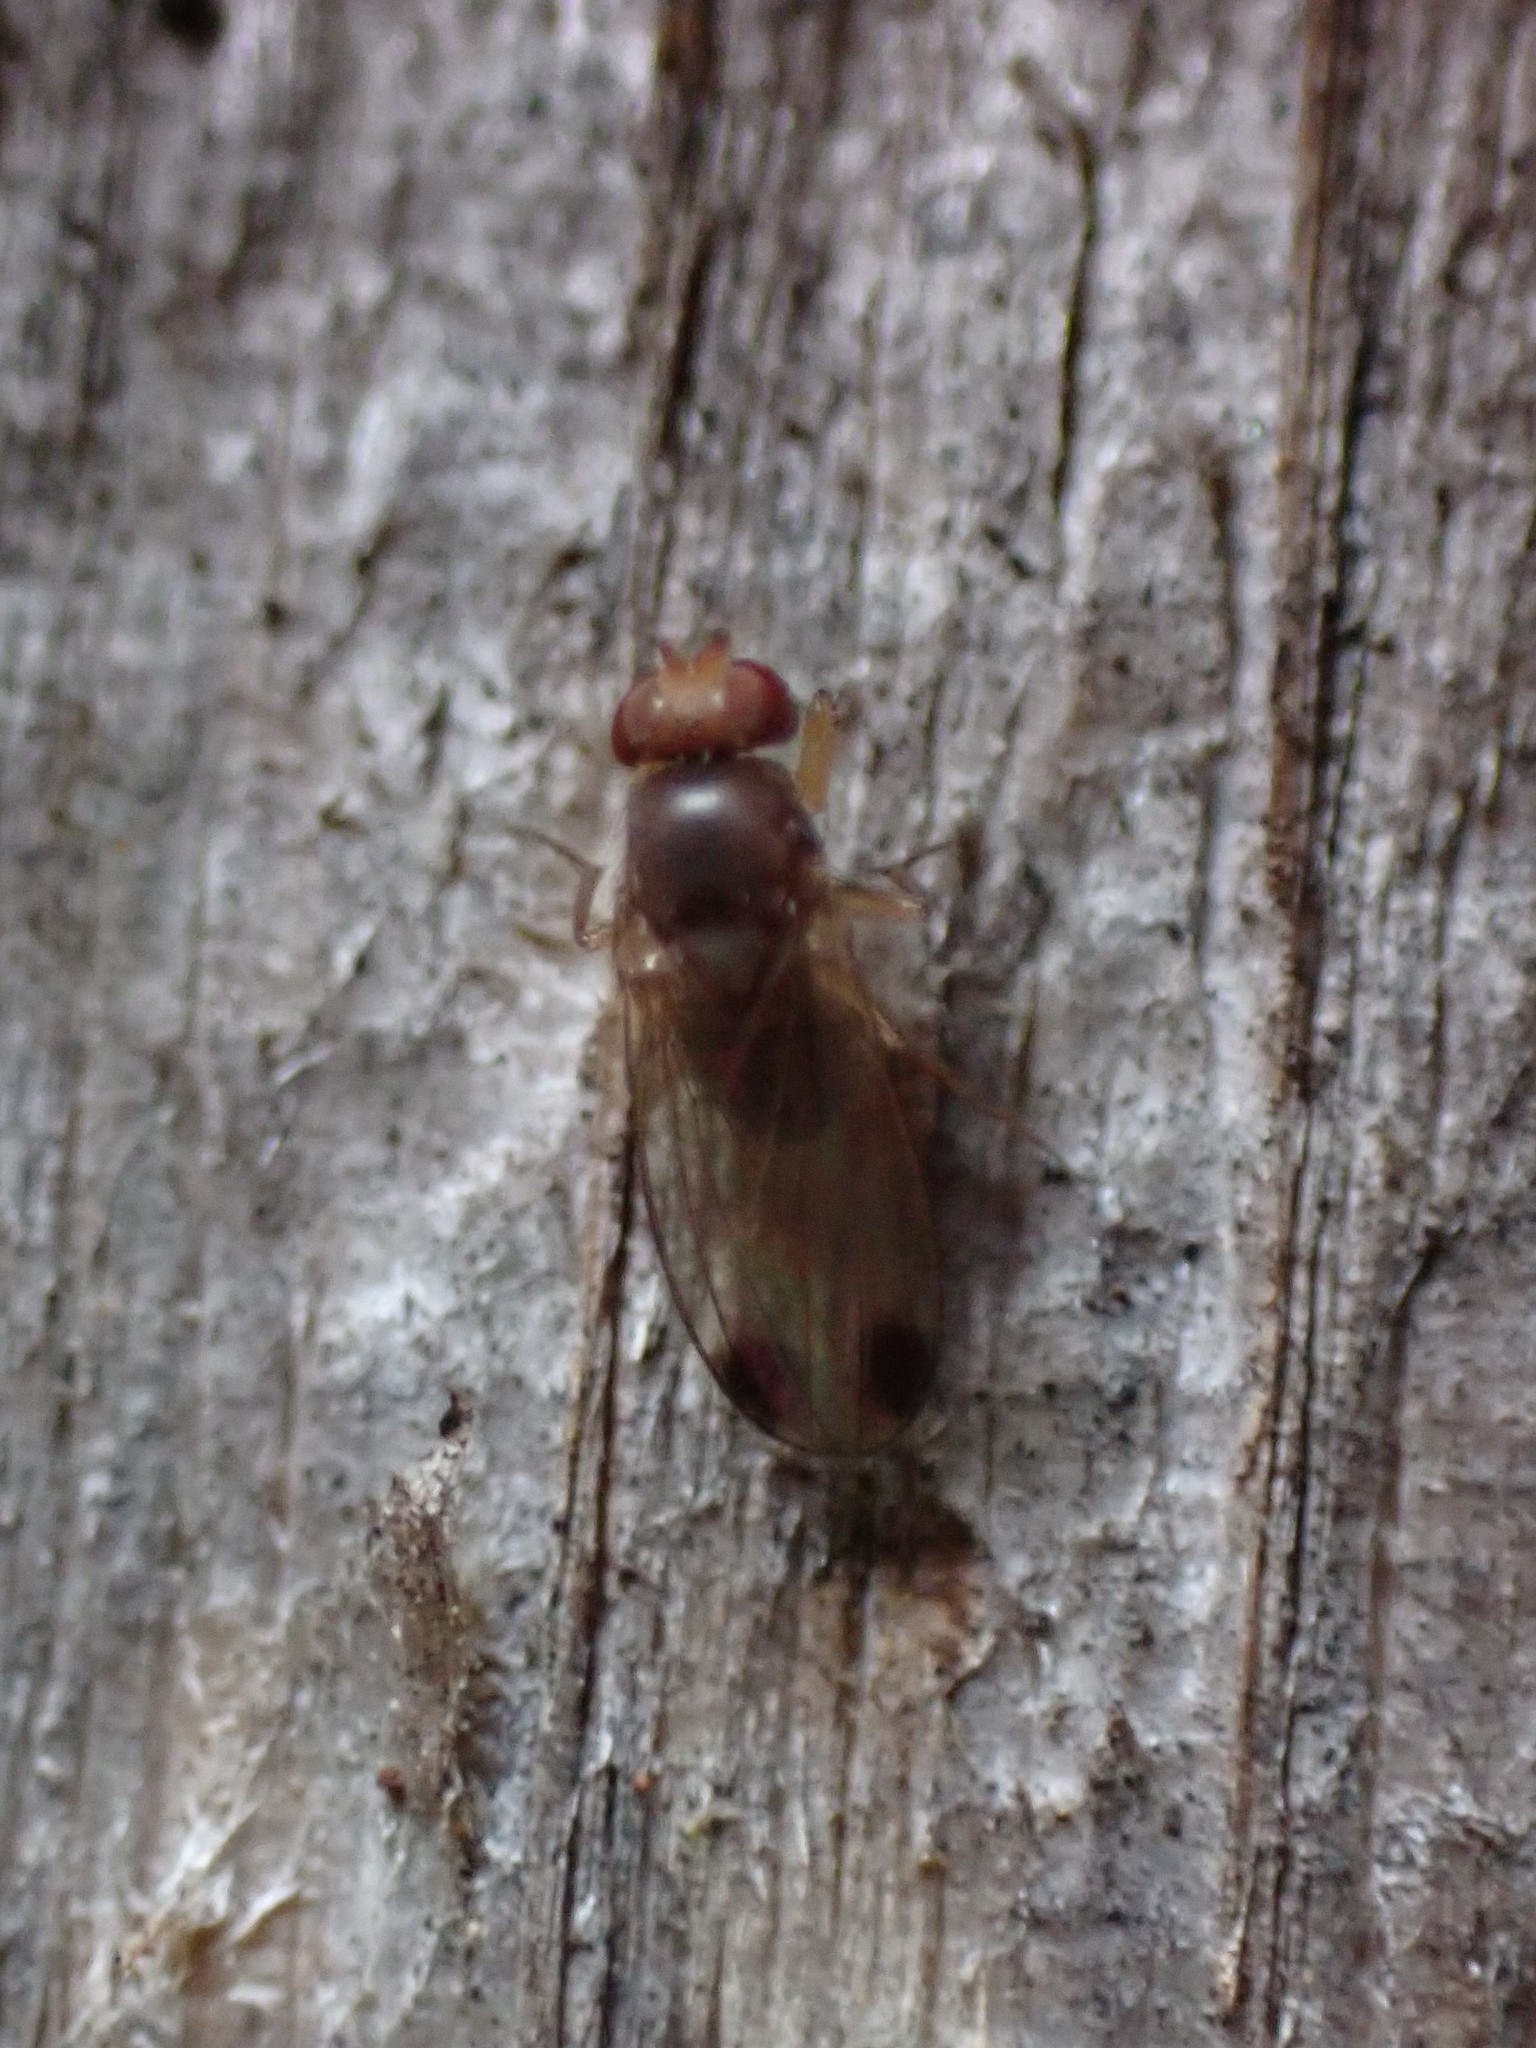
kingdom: Animalia
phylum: Arthropoda
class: Insecta
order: Diptera
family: Drosophilidae
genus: Drosophila
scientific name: Drosophila suzukii
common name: Spotted-wing drosophila
